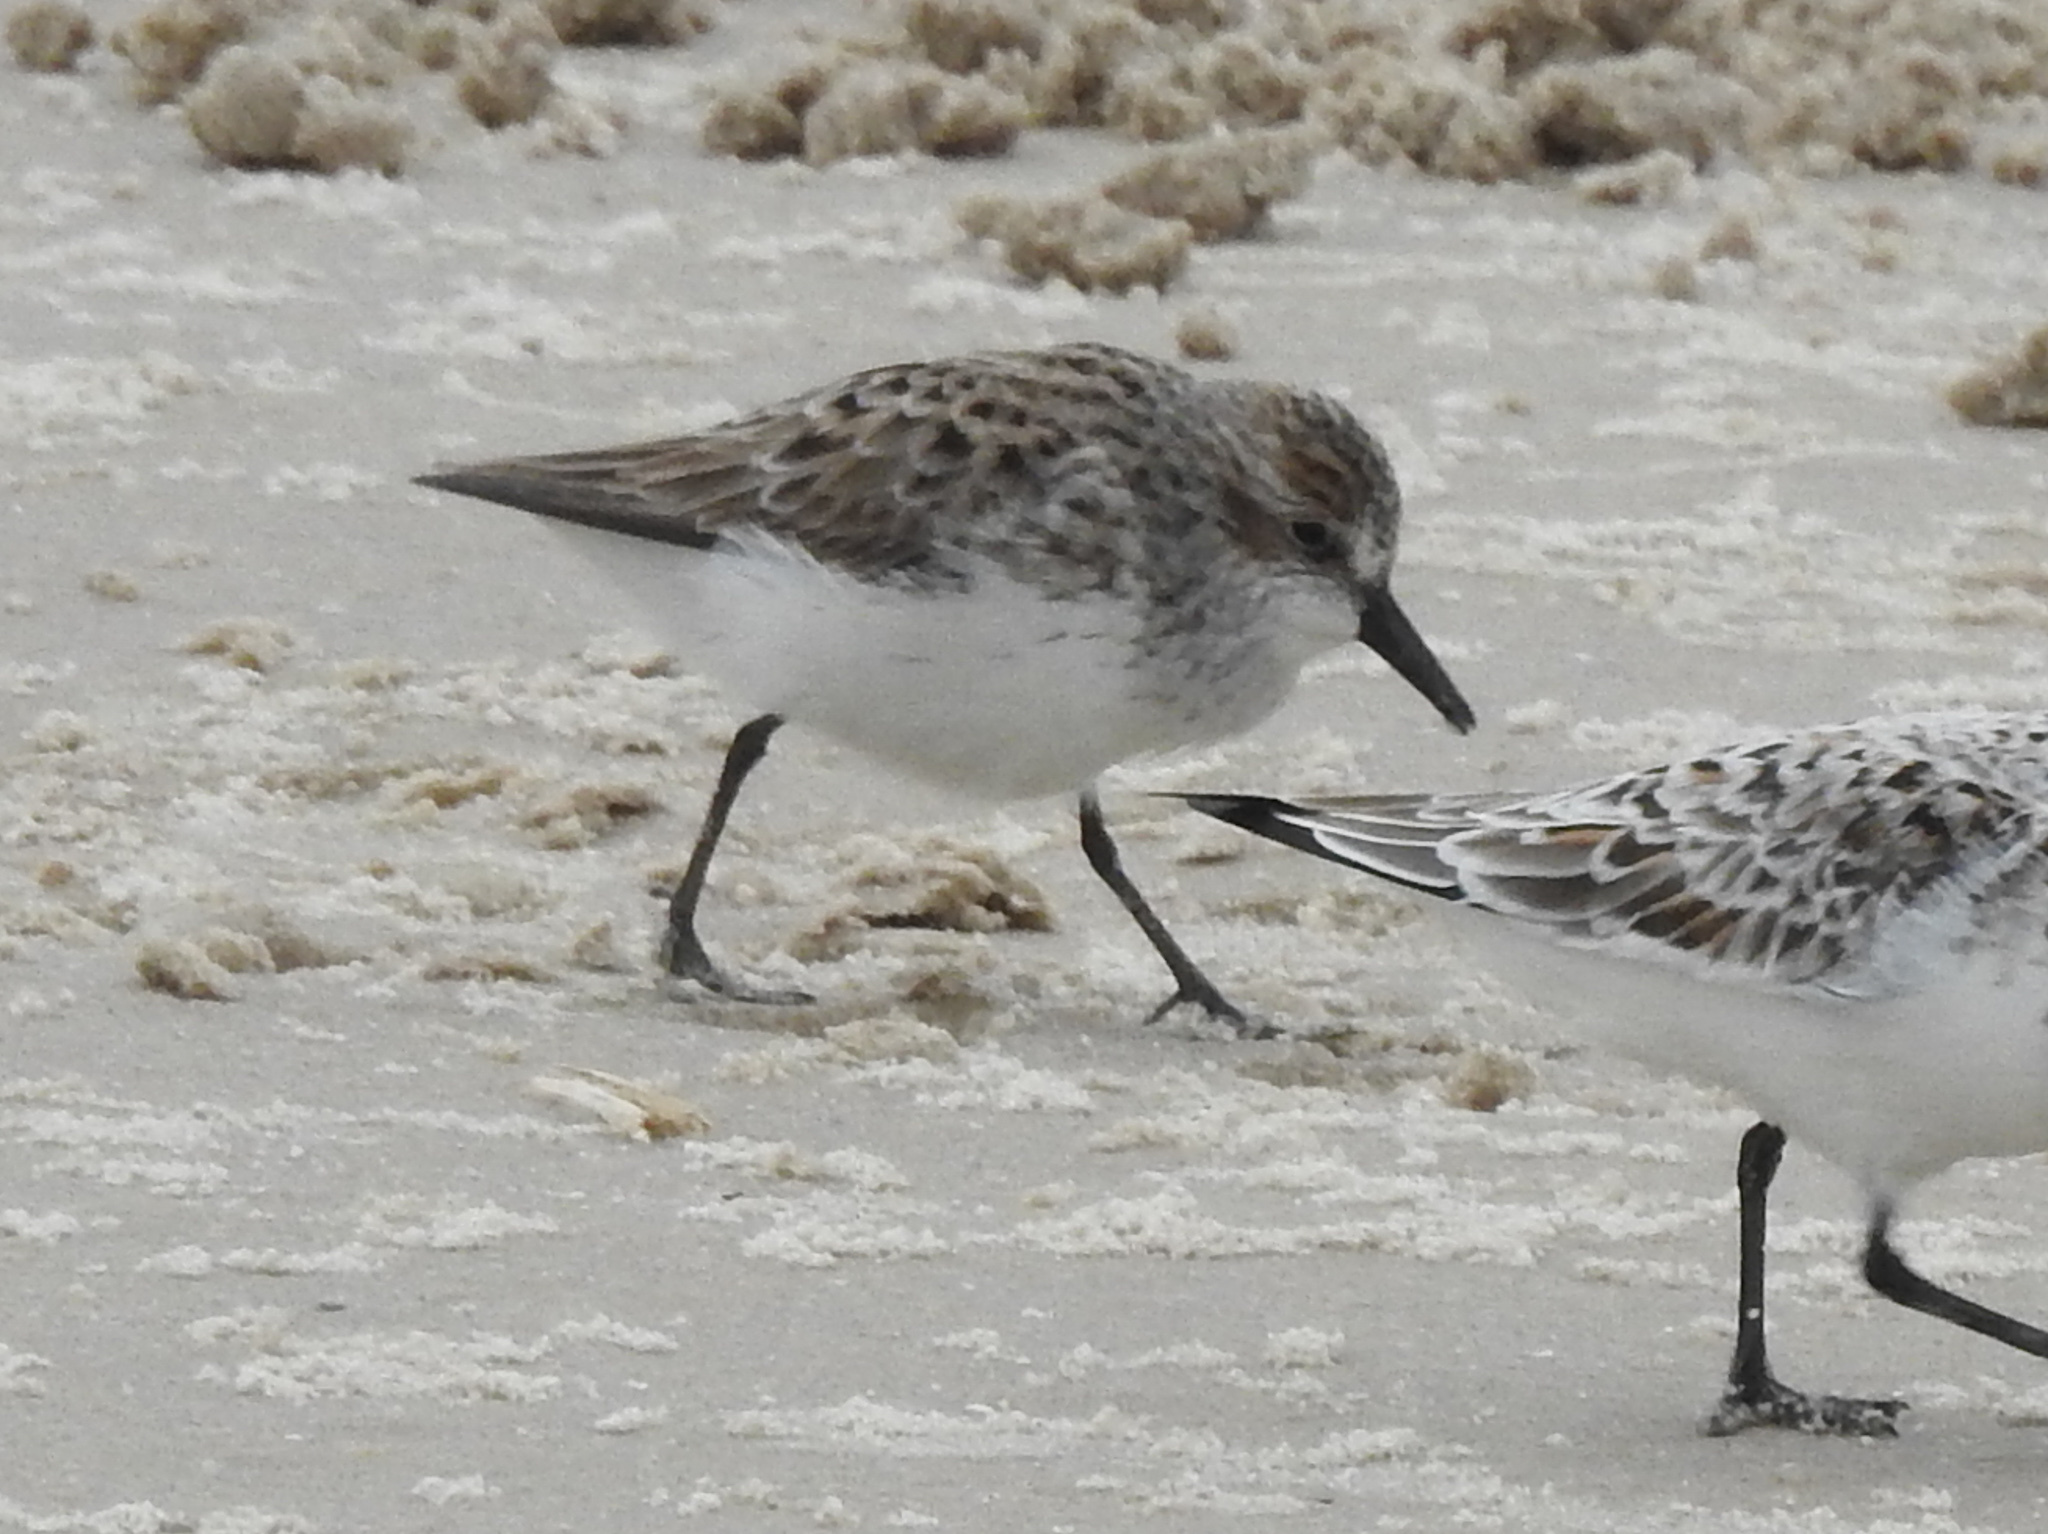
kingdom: Animalia
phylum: Chordata
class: Aves
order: Charadriiformes
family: Scolopacidae
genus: Calidris
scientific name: Calidris pusilla
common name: Semipalmated sandpiper
